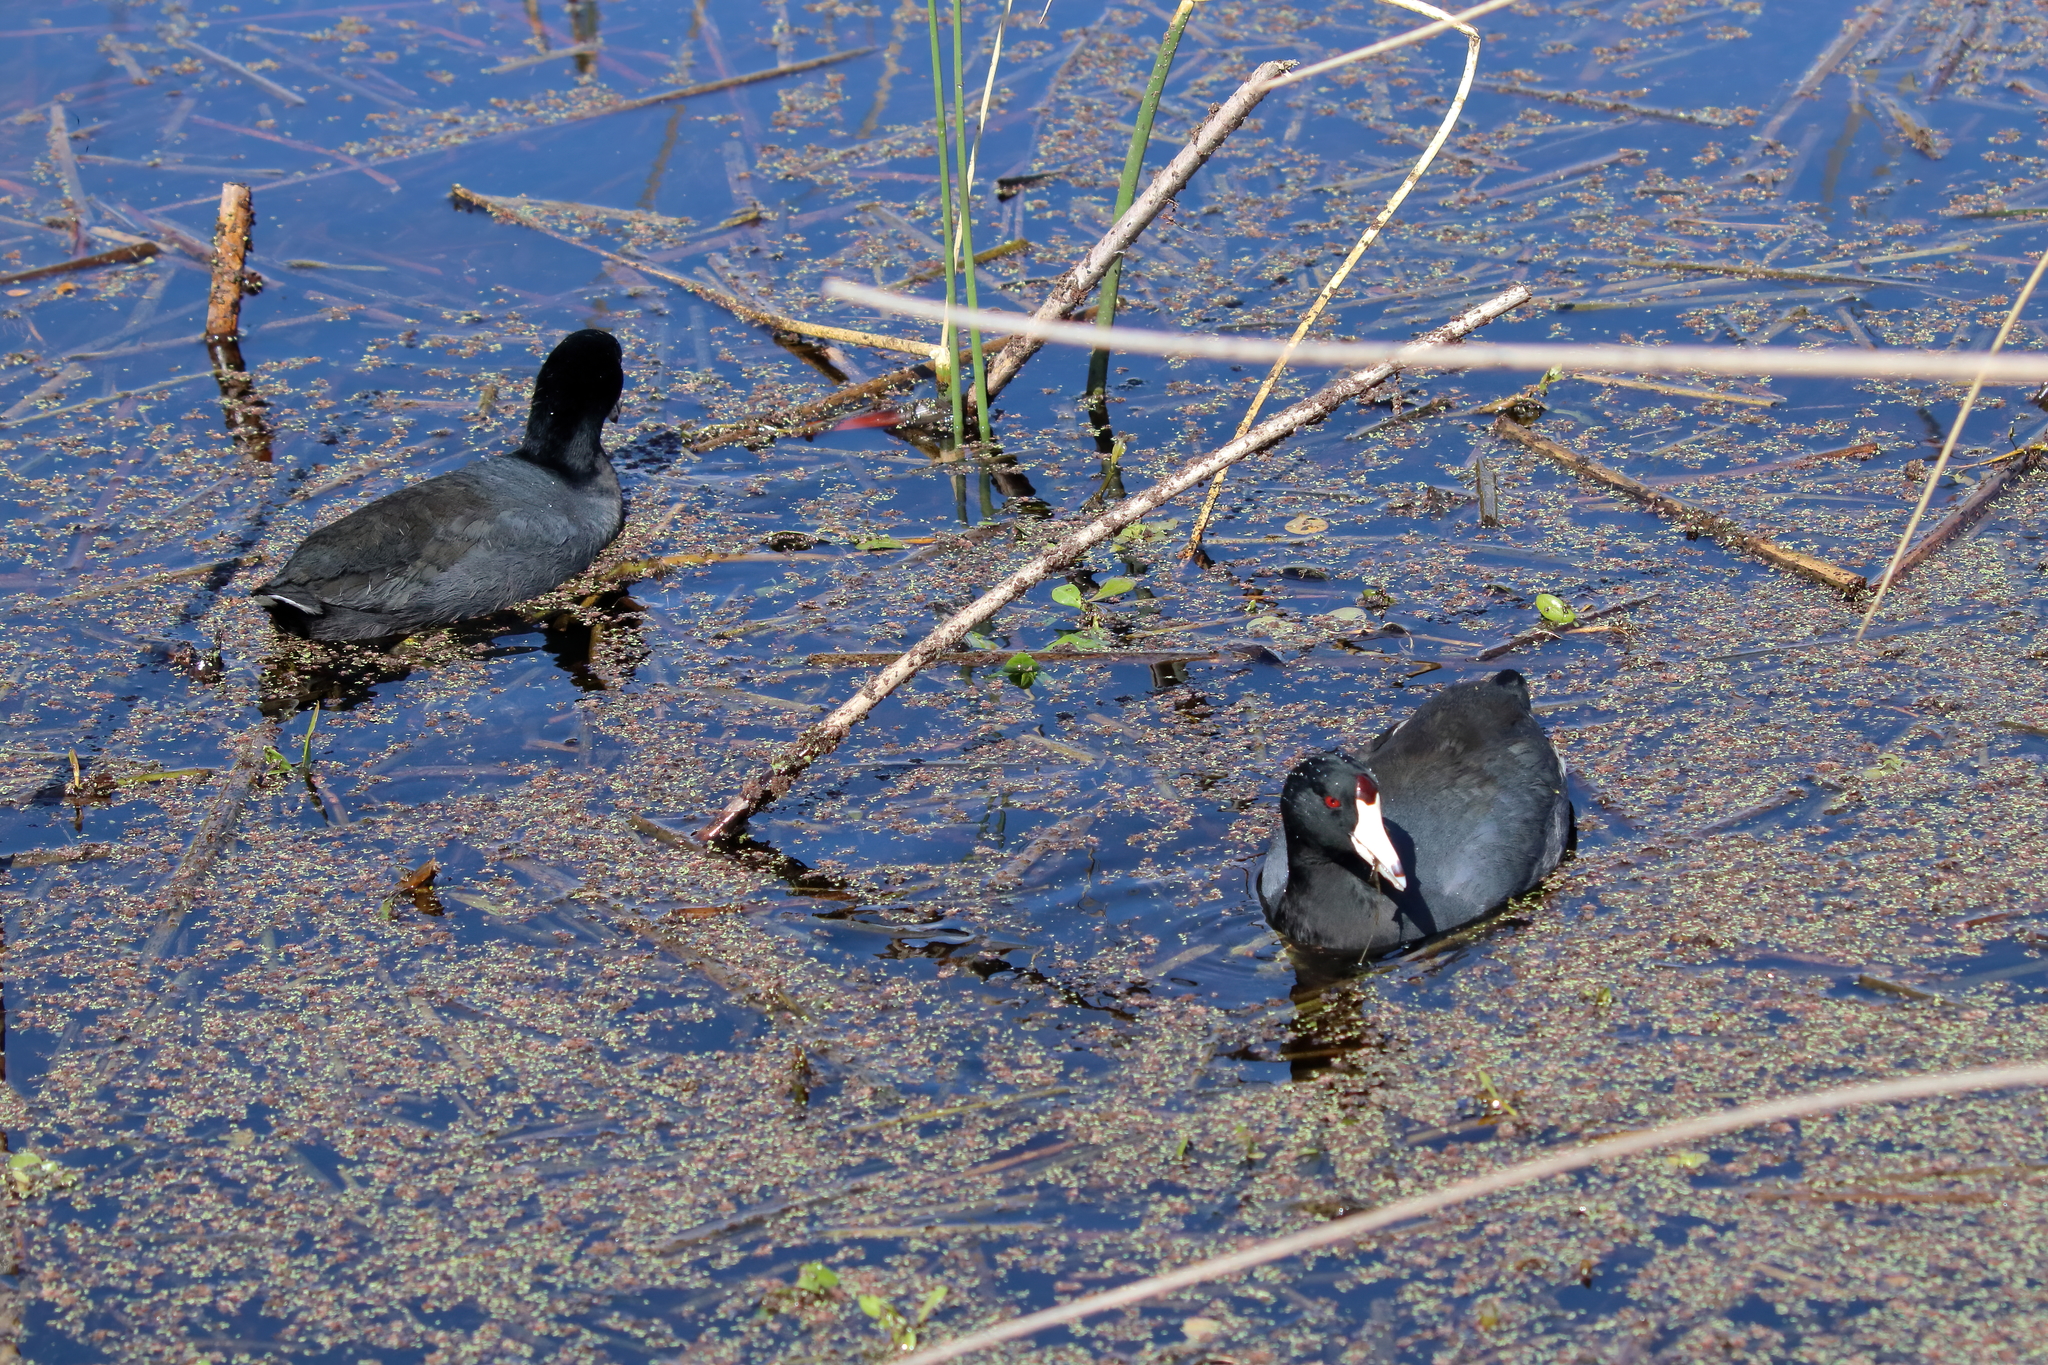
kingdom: Animalia
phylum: Chordata
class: Aves
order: Gruiformes
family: Rallidae
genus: Fulica
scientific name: Fulica americana
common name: American coot
